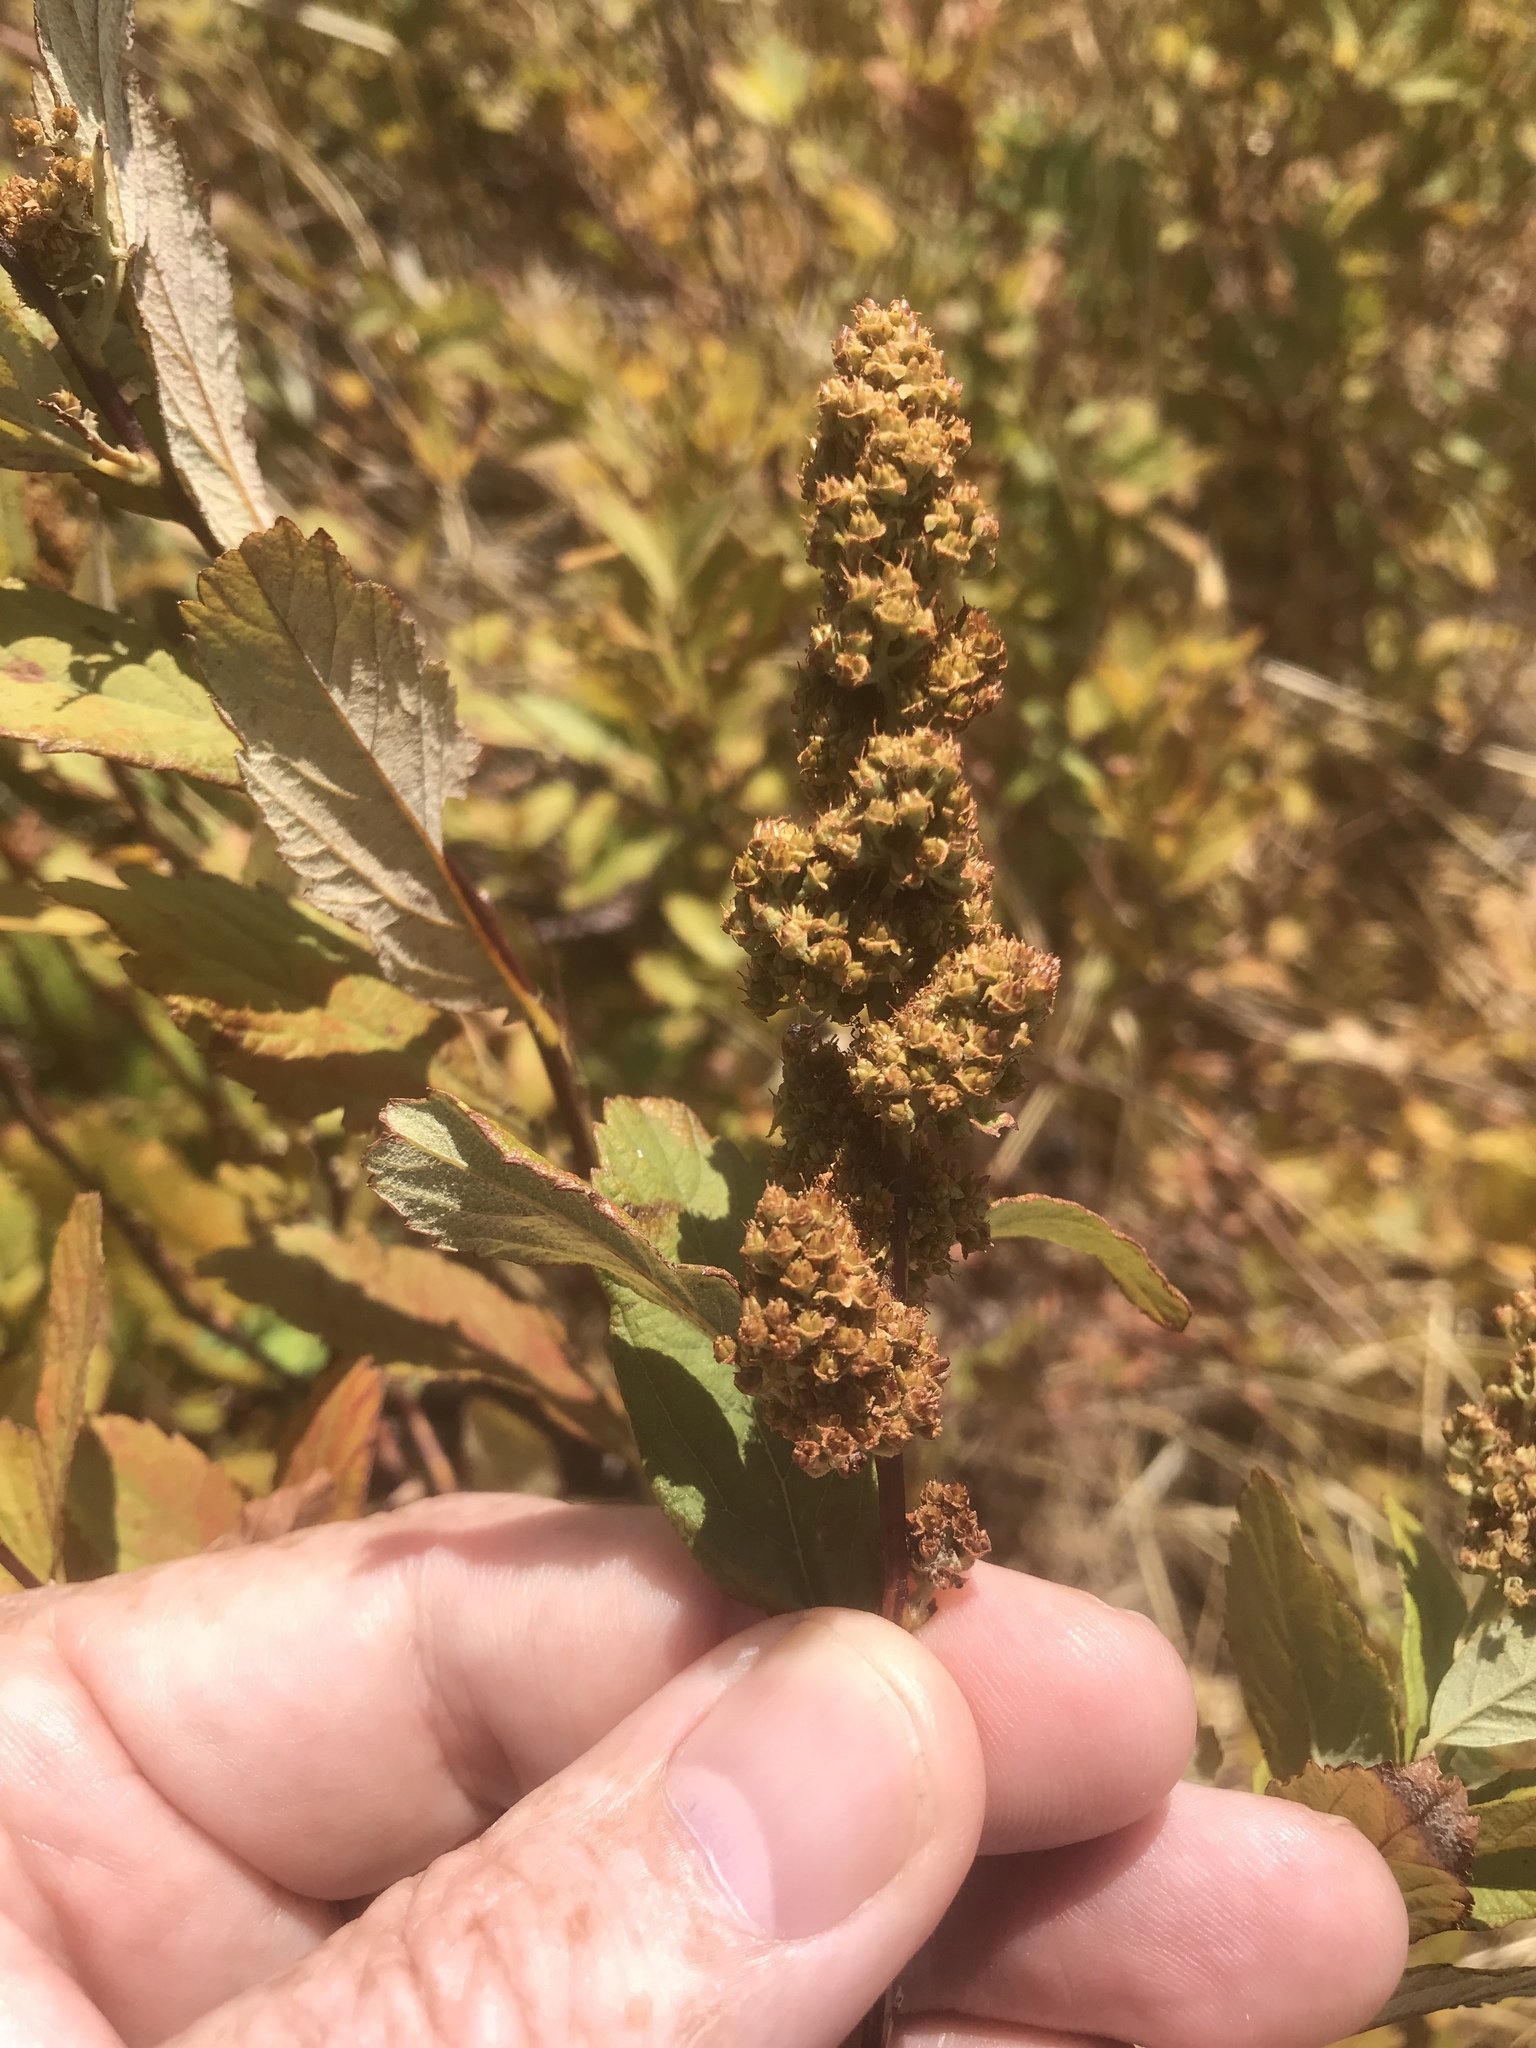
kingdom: Plantae
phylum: Tracheophyta
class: Magnoliopsida
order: Rosales
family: Rosaceae
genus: Spiraea
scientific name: Spiraea douglasii
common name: Steeplebush
